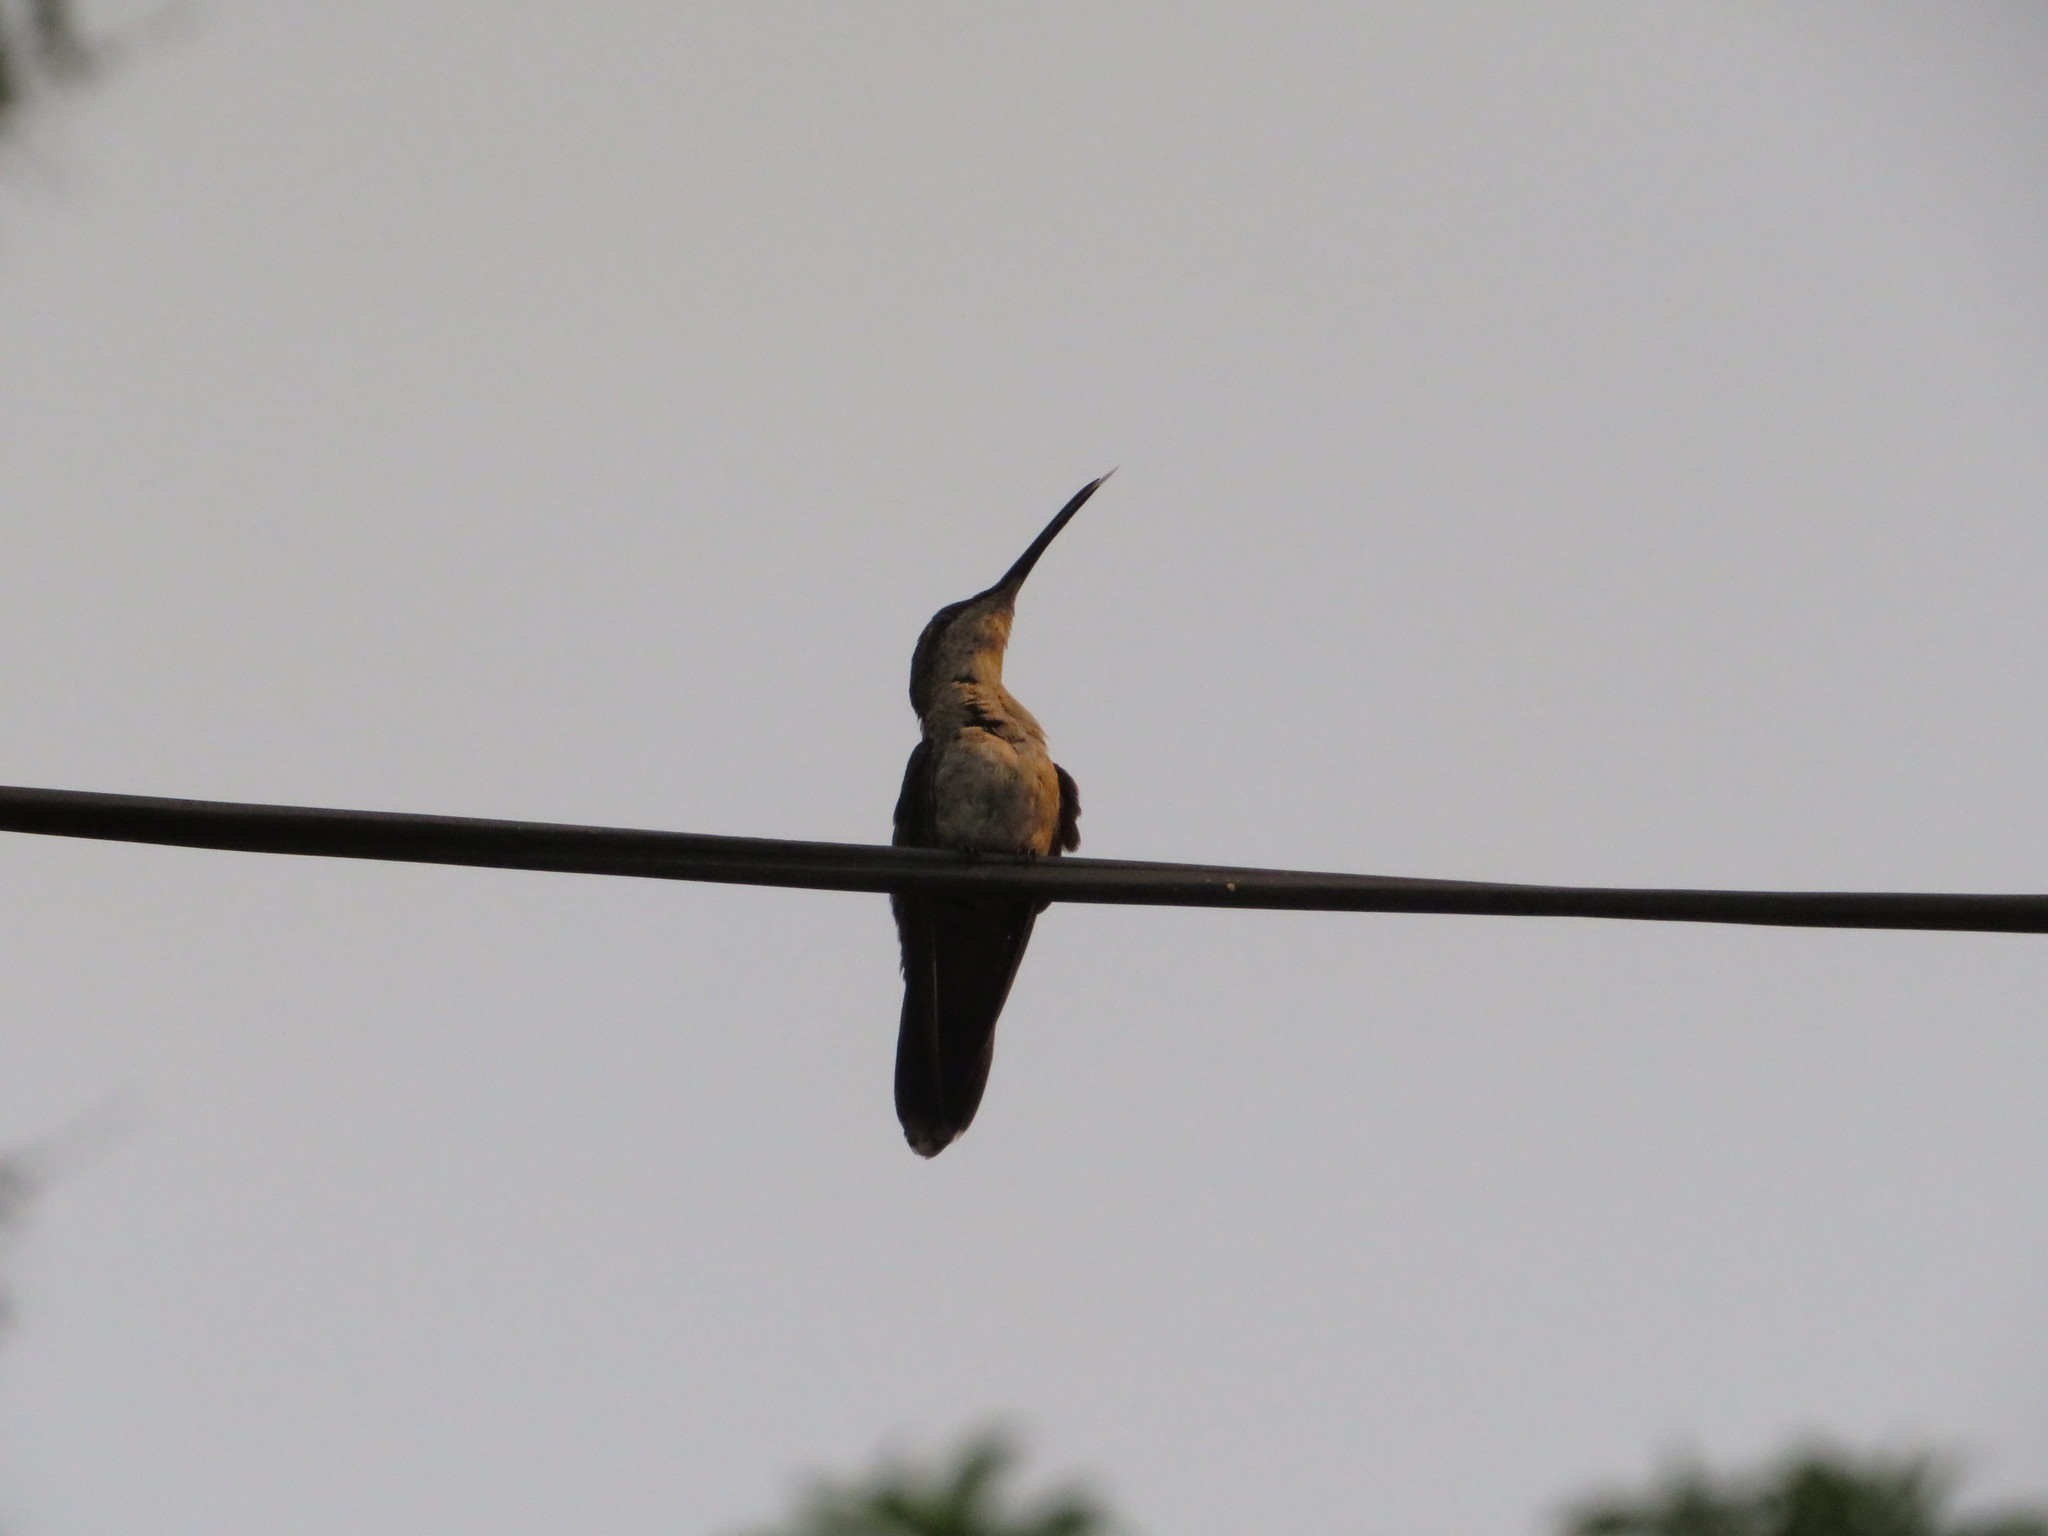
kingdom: Animalia
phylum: Chordata
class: Aves
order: Apodiformes
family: Trochilidae
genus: Anthracothorax
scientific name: Anthracothorax dominicus
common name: Antillean mango
